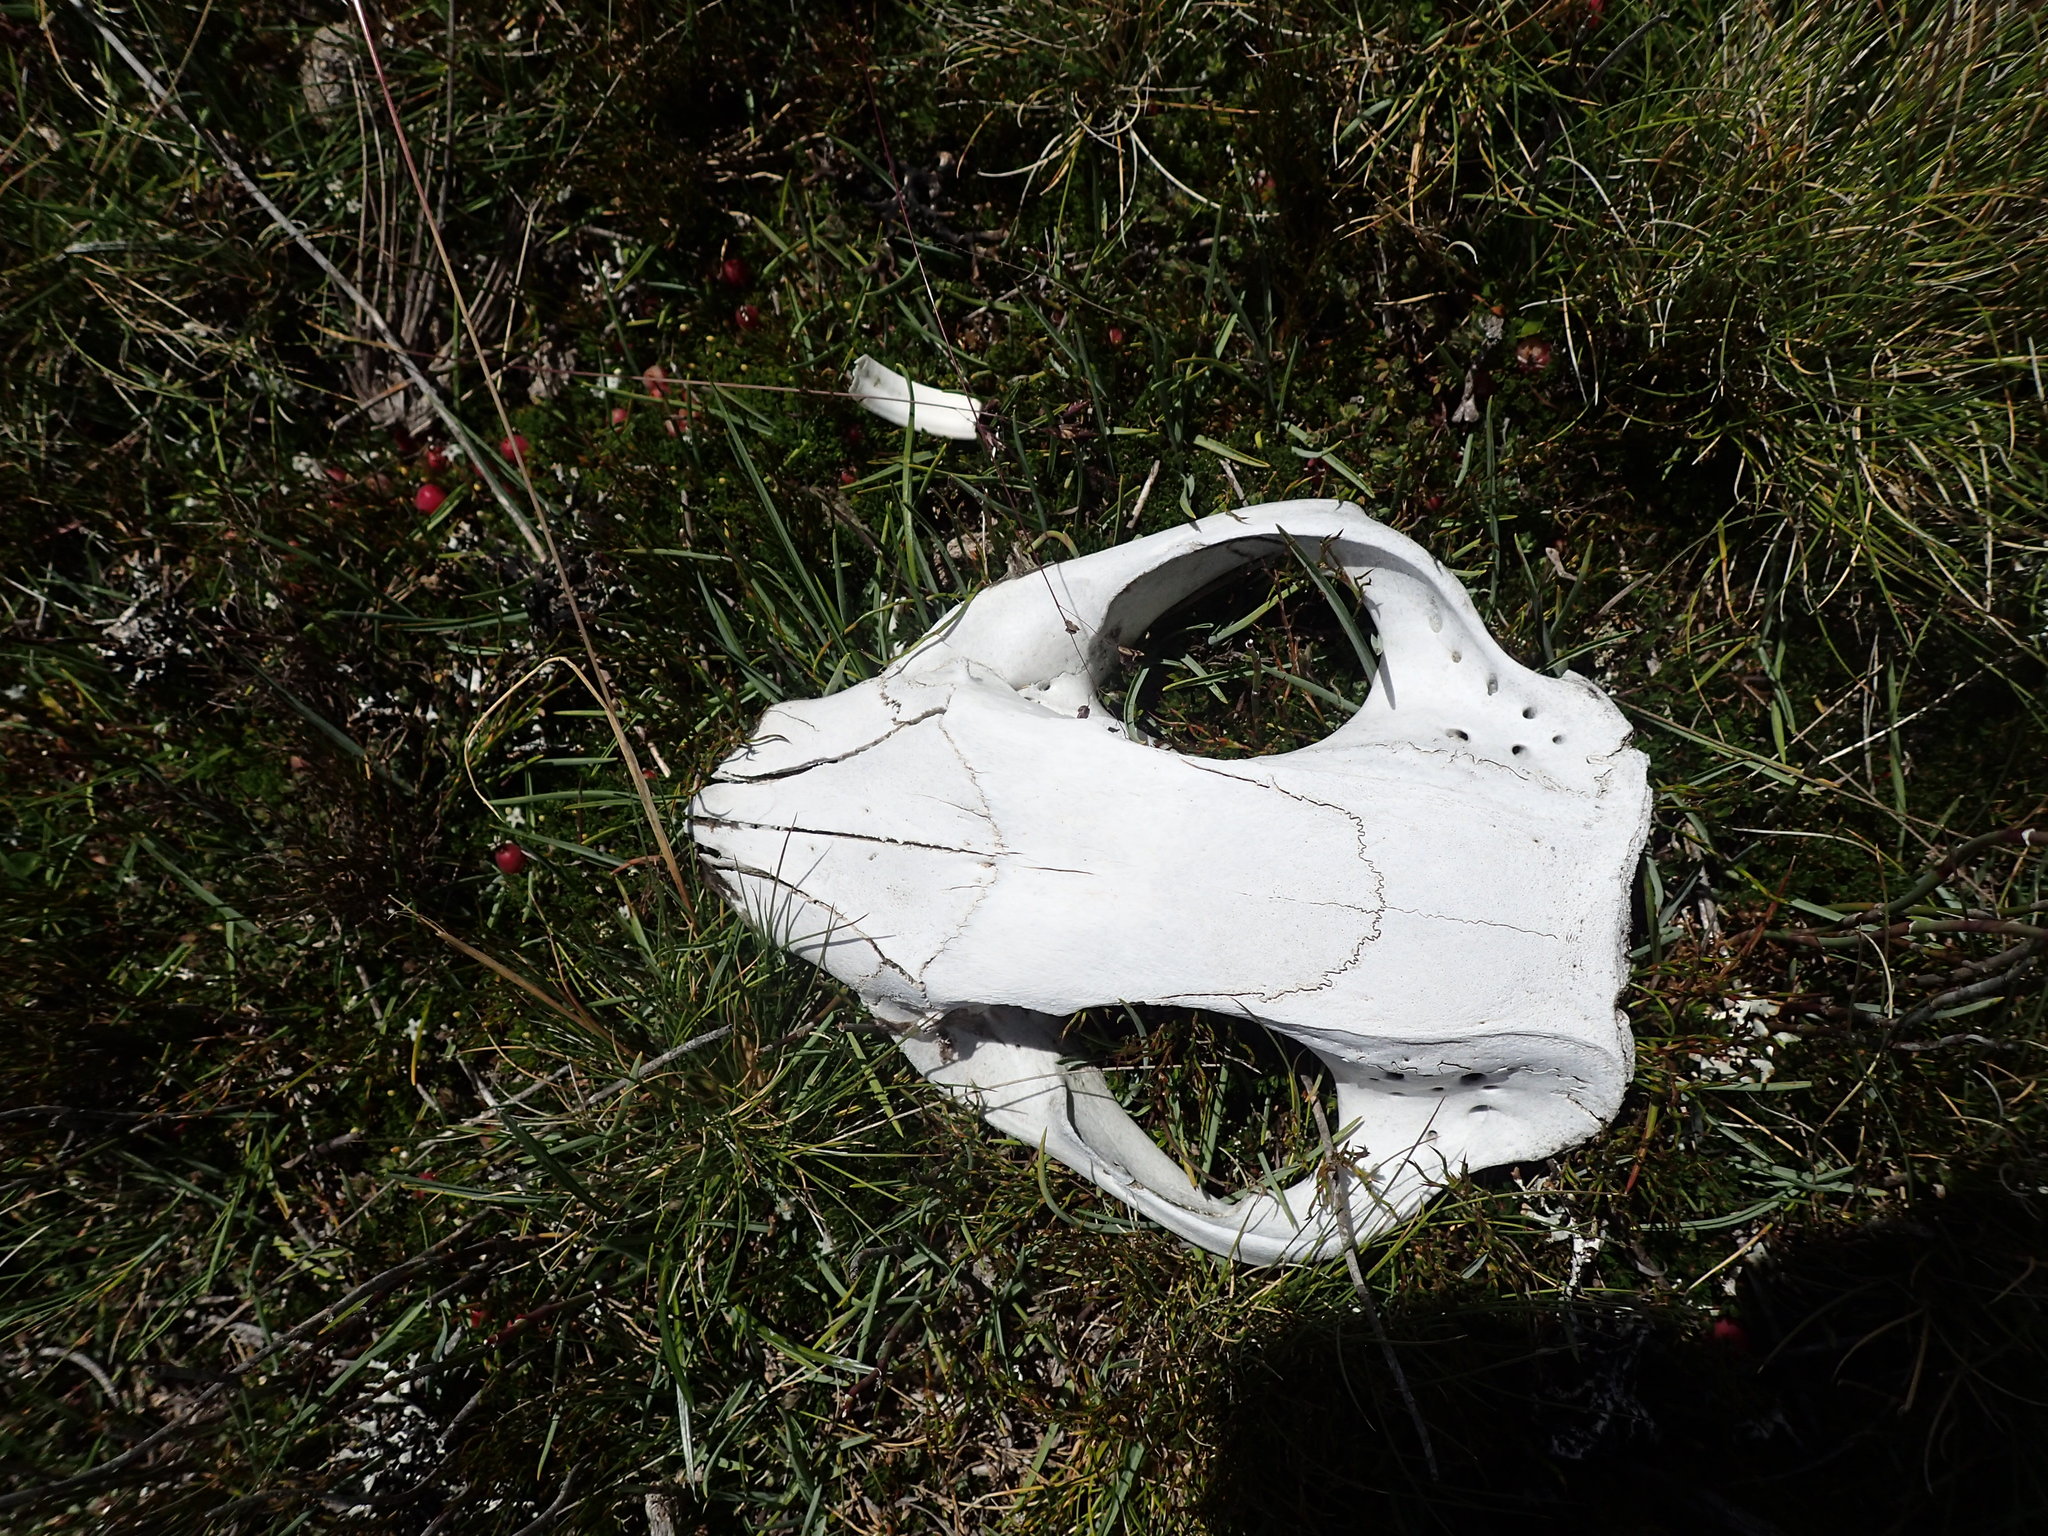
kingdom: Animalia
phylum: Chordata
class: Mammalia
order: Diprotodontia
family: Vombatidae
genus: Vombatus
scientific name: Vombatus ursinus
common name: Common wombat
